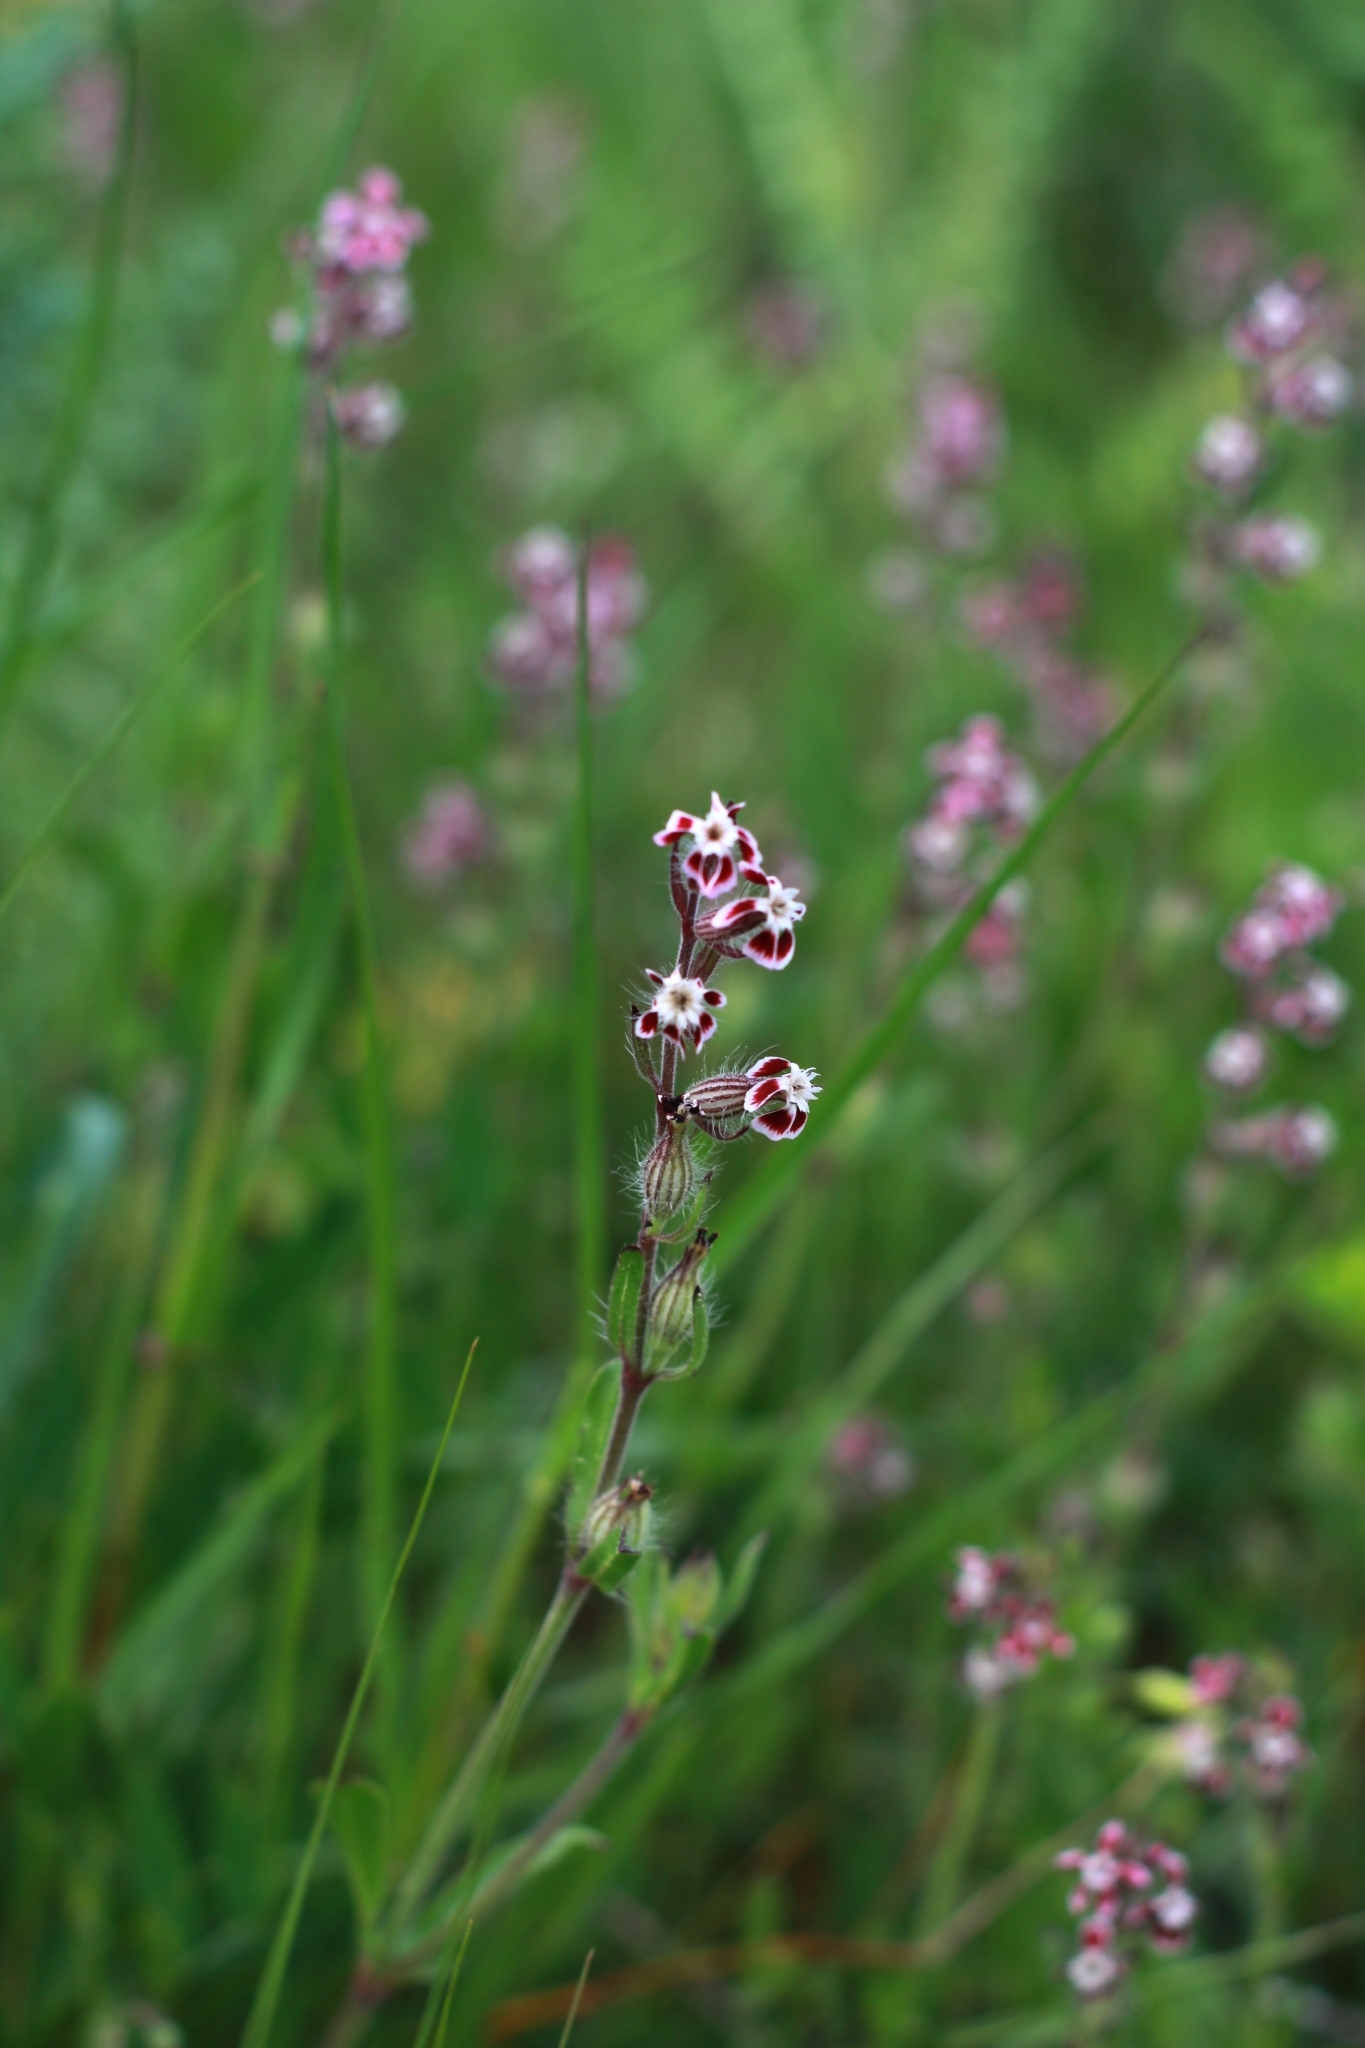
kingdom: Plantae
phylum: Tracheophyta
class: Magnoliopsida
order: Caryophyllales
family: Caryophyllaceae
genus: Silene
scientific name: Silene gallica
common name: Small-flowered catchfly
